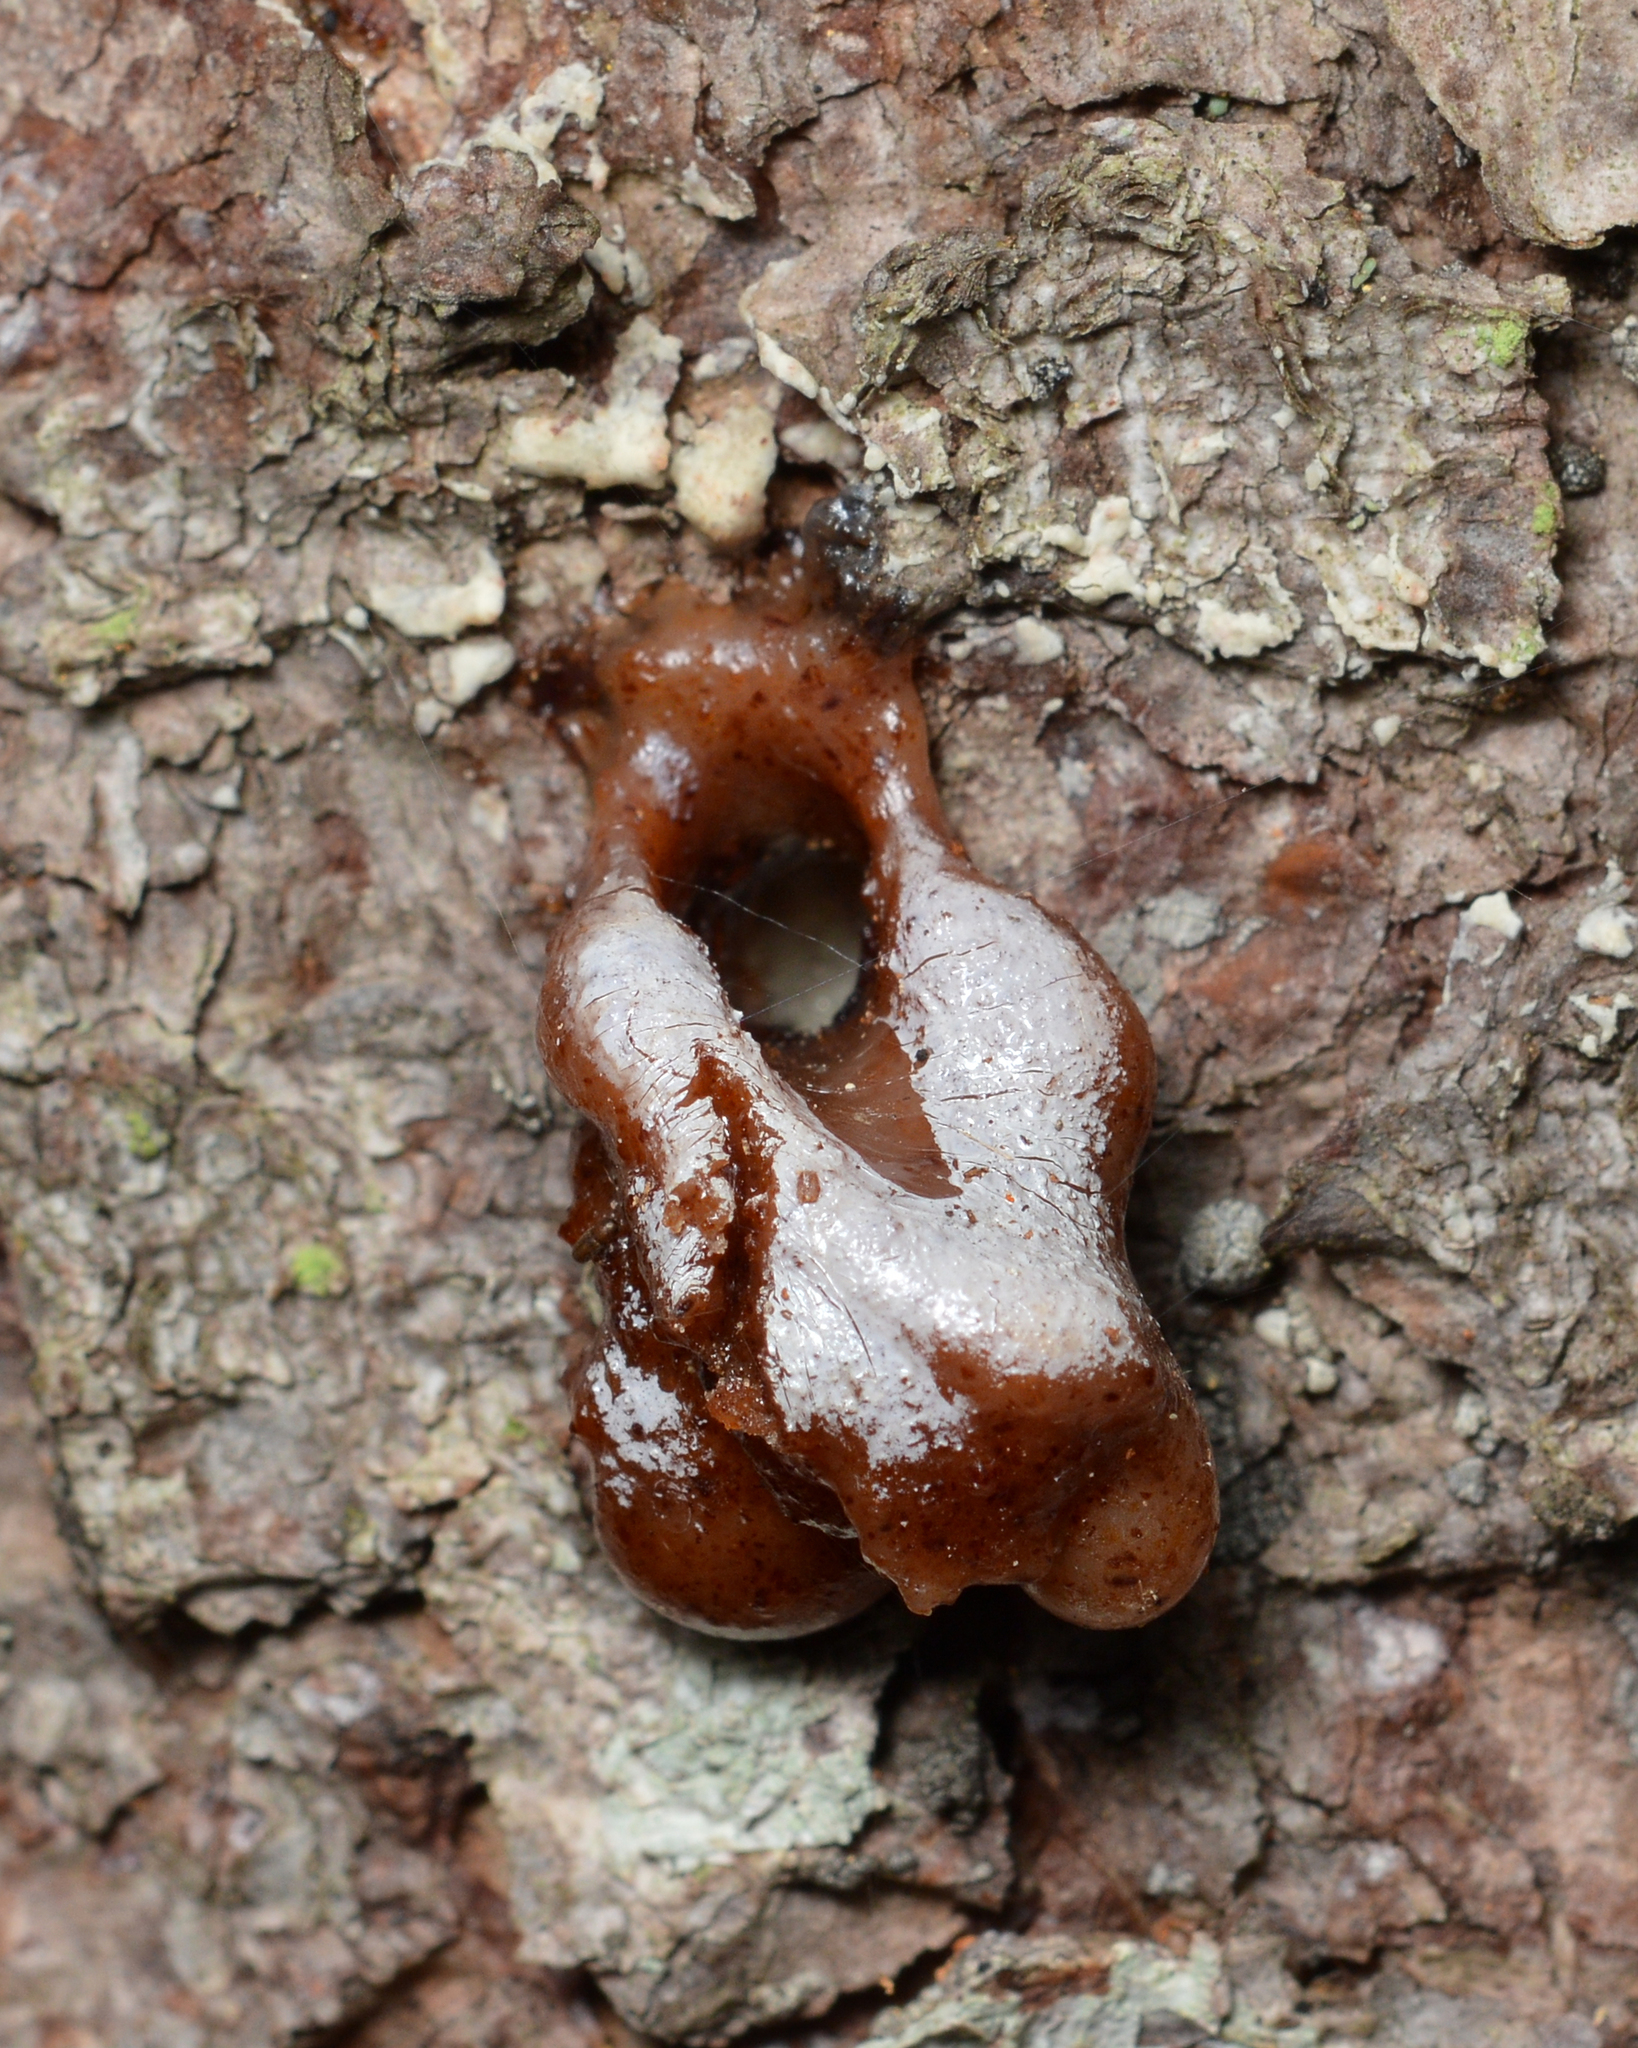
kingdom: Animalia
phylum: Arthropoda
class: Insecta
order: Lepidoptera
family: Sesiidae
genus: Synanthedon
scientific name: Synanthedon pini
